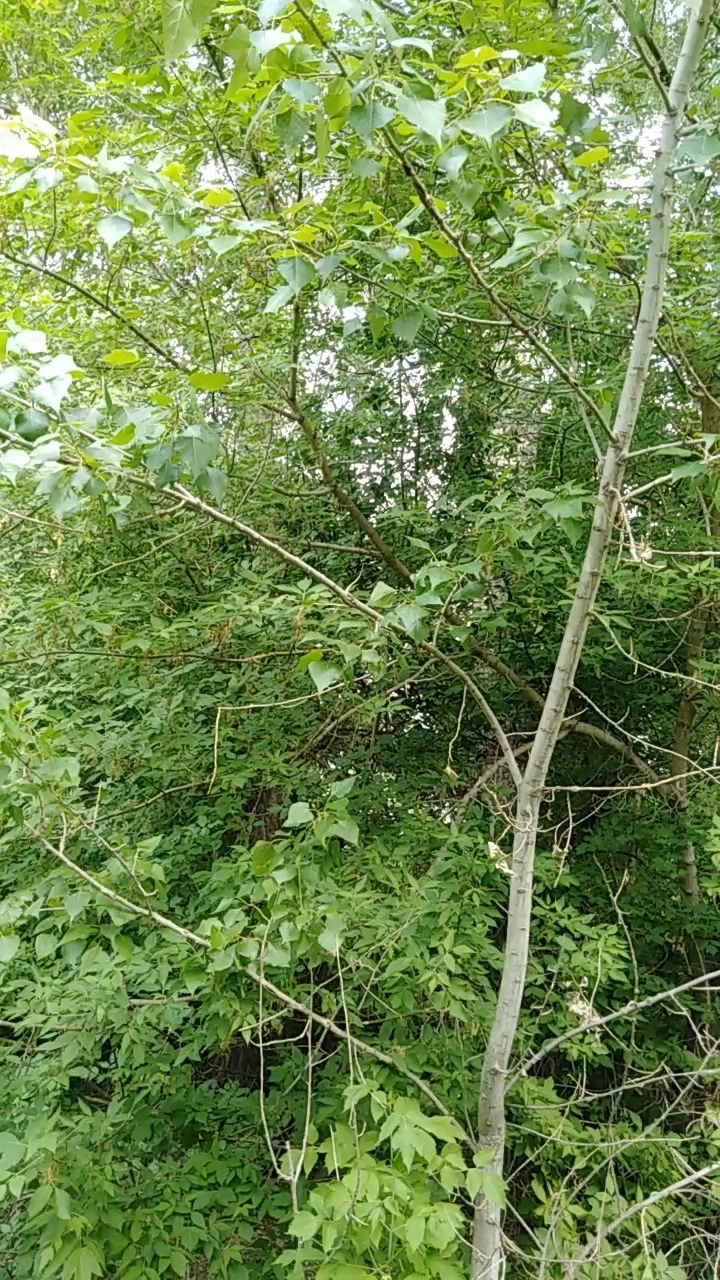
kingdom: Animalia
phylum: Chordata
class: Aves
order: Passeriformes
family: Phylloscopidae
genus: Phylloscopus
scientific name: Phylloscopus trochiloides
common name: Greenish warbler
